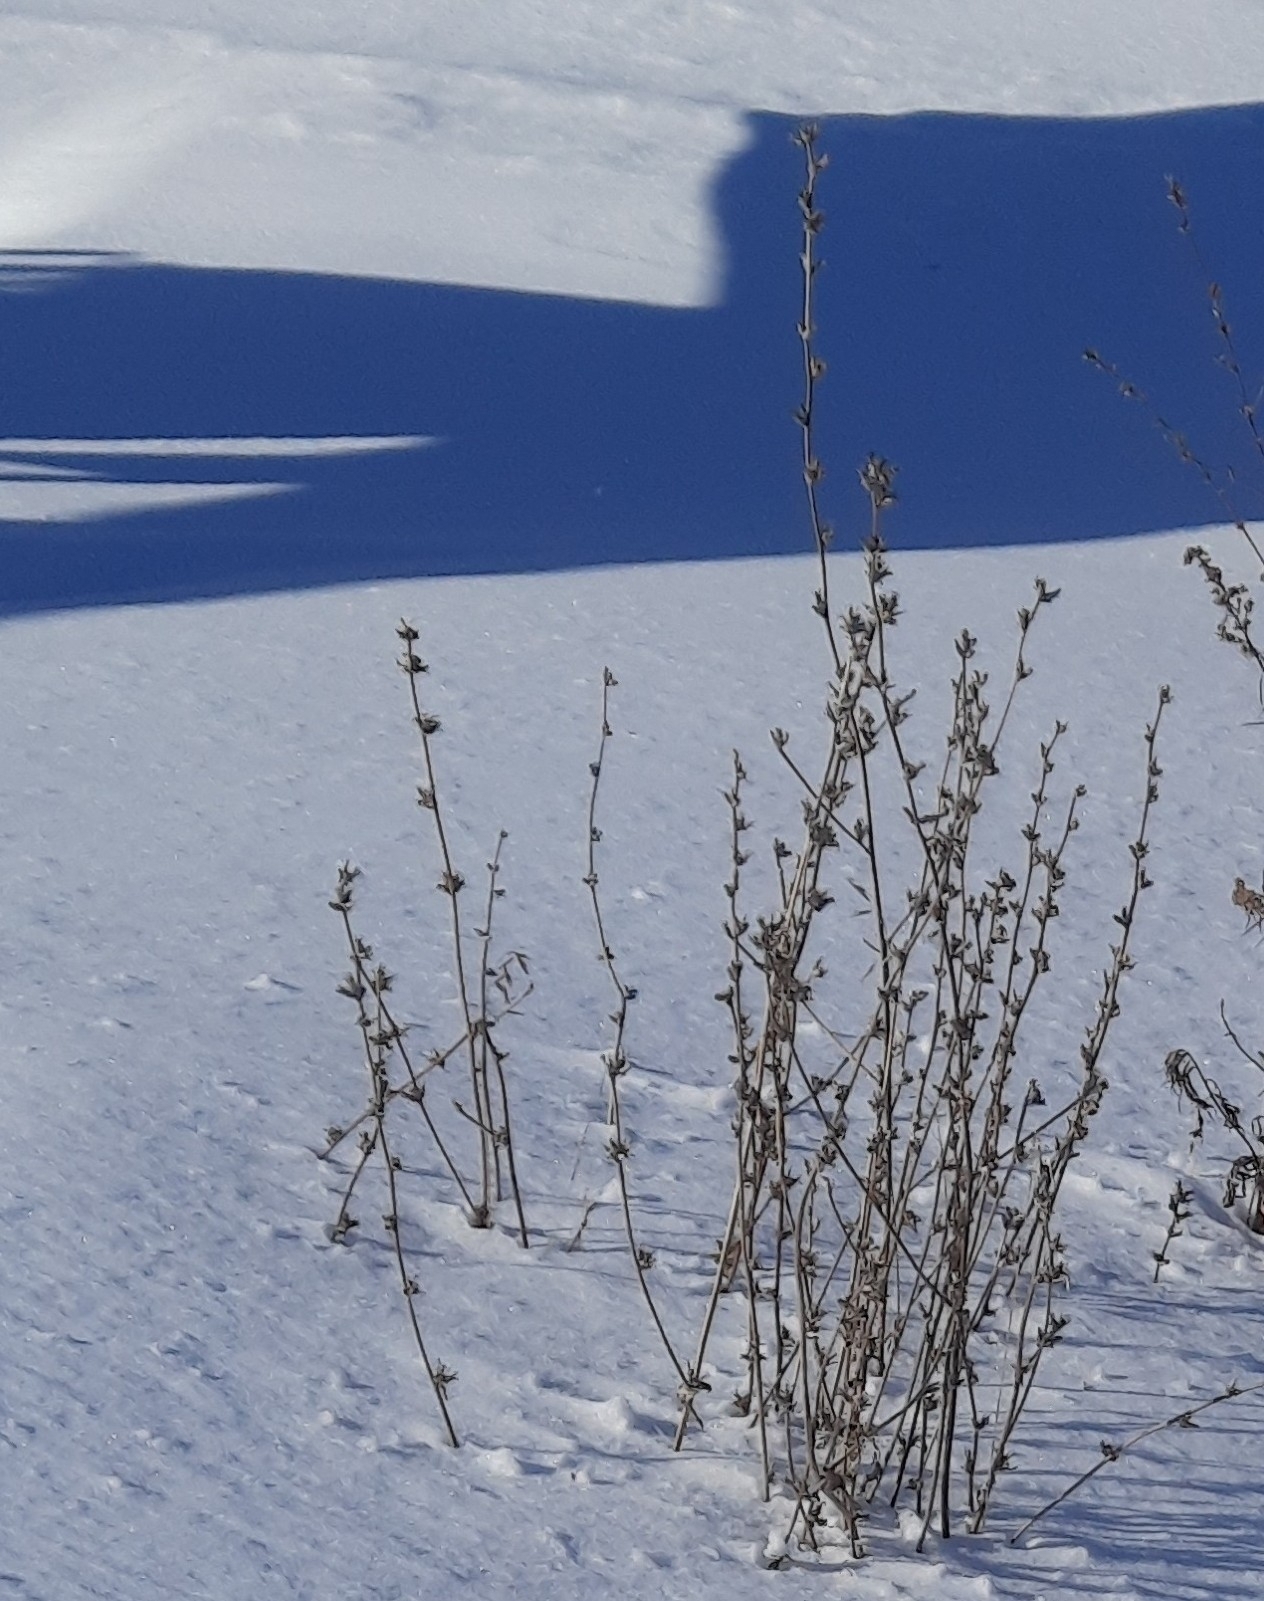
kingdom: Plantae
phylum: Tracheophyta
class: Magnoliopsida
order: Asterales
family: Asteraceae
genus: Cichorium
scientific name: Cichorium intybus
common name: Chicory
